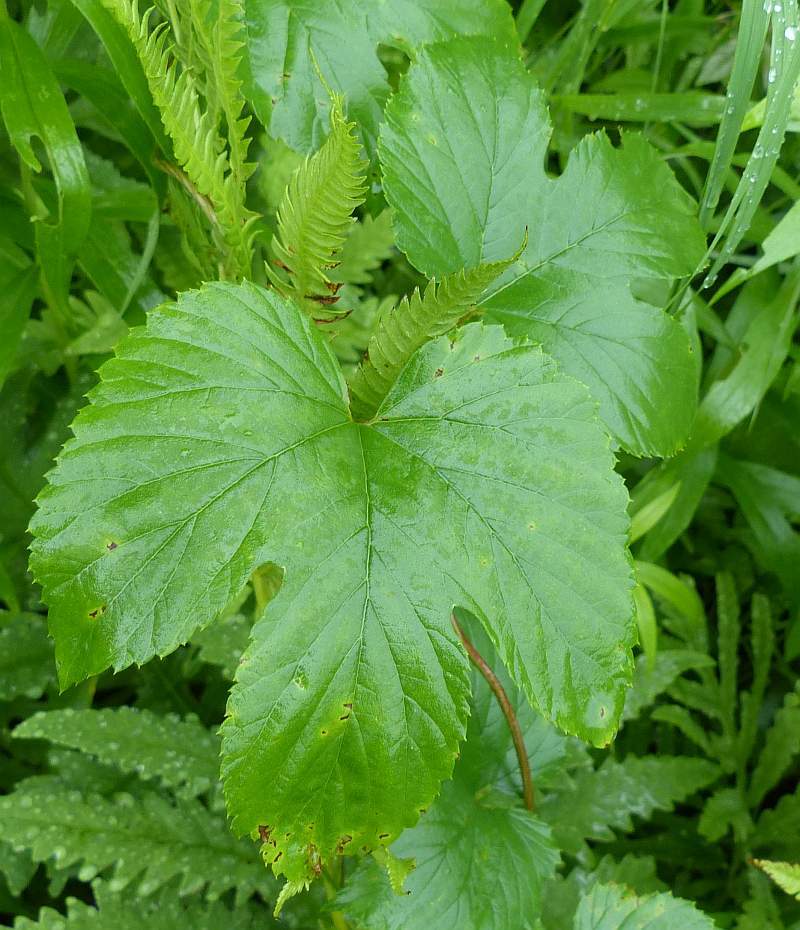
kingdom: Plantae
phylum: Tracheophyta
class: Magnoliopsida
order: Rosales
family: Cannabaceae
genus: Humulus
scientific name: Humulus lupulus
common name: Hop
